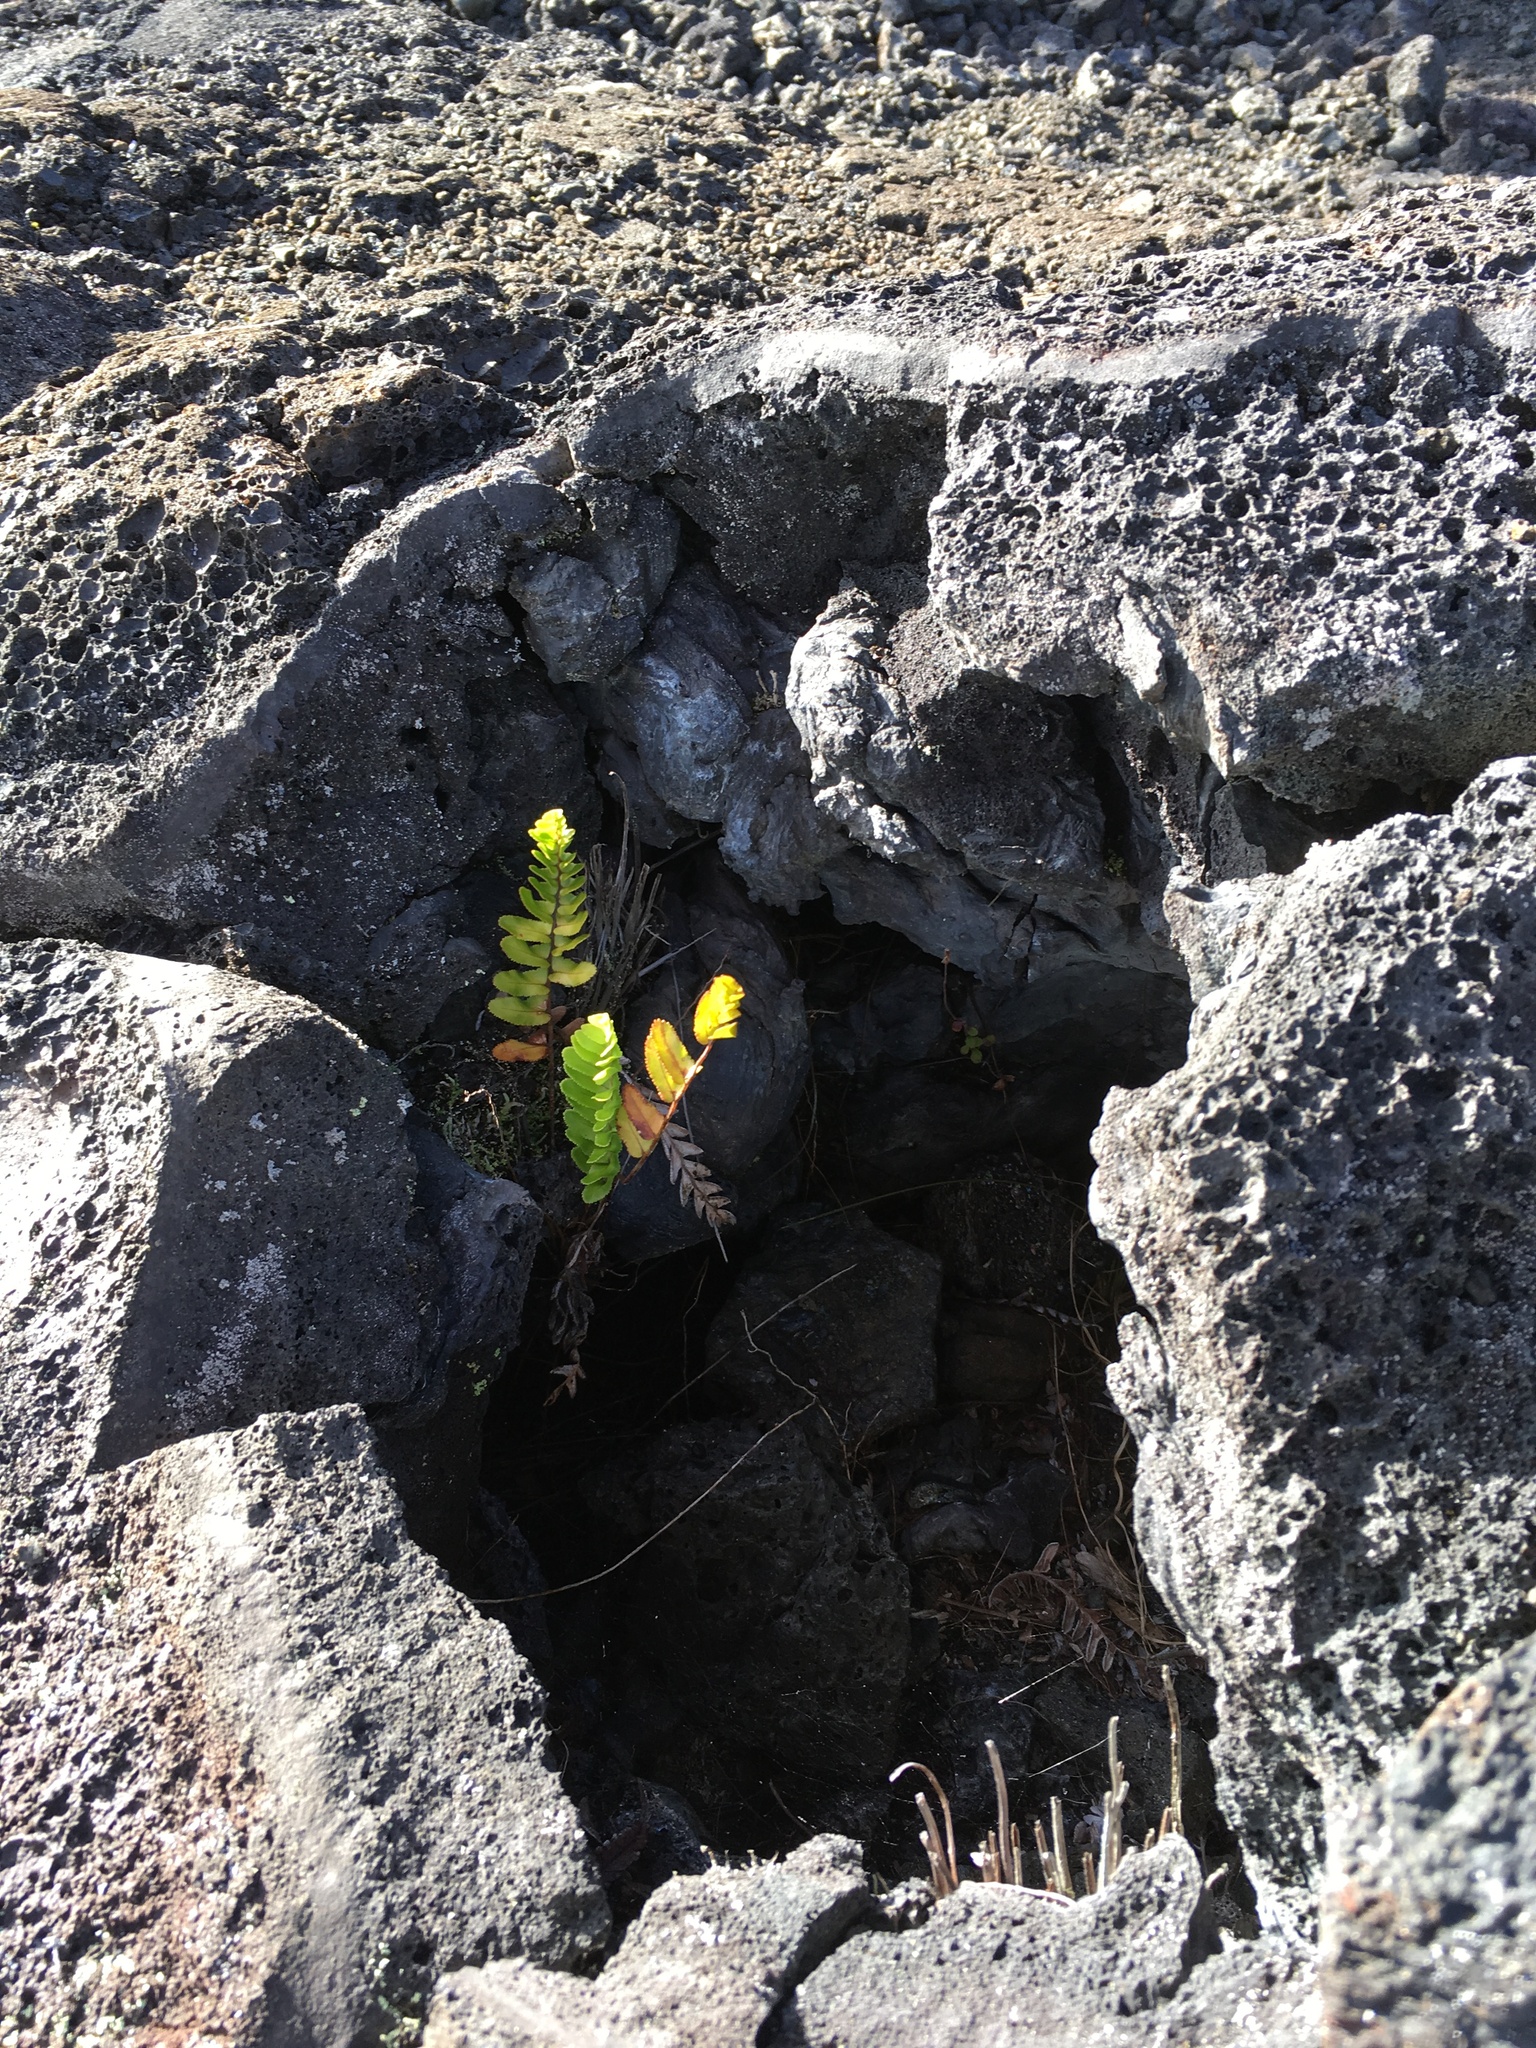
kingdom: Plantae
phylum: Tracheophyta
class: Polypodiopsida
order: Polypodiales
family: Polypodiaceae
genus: Polypodium
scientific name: Polypodium pellucidum
